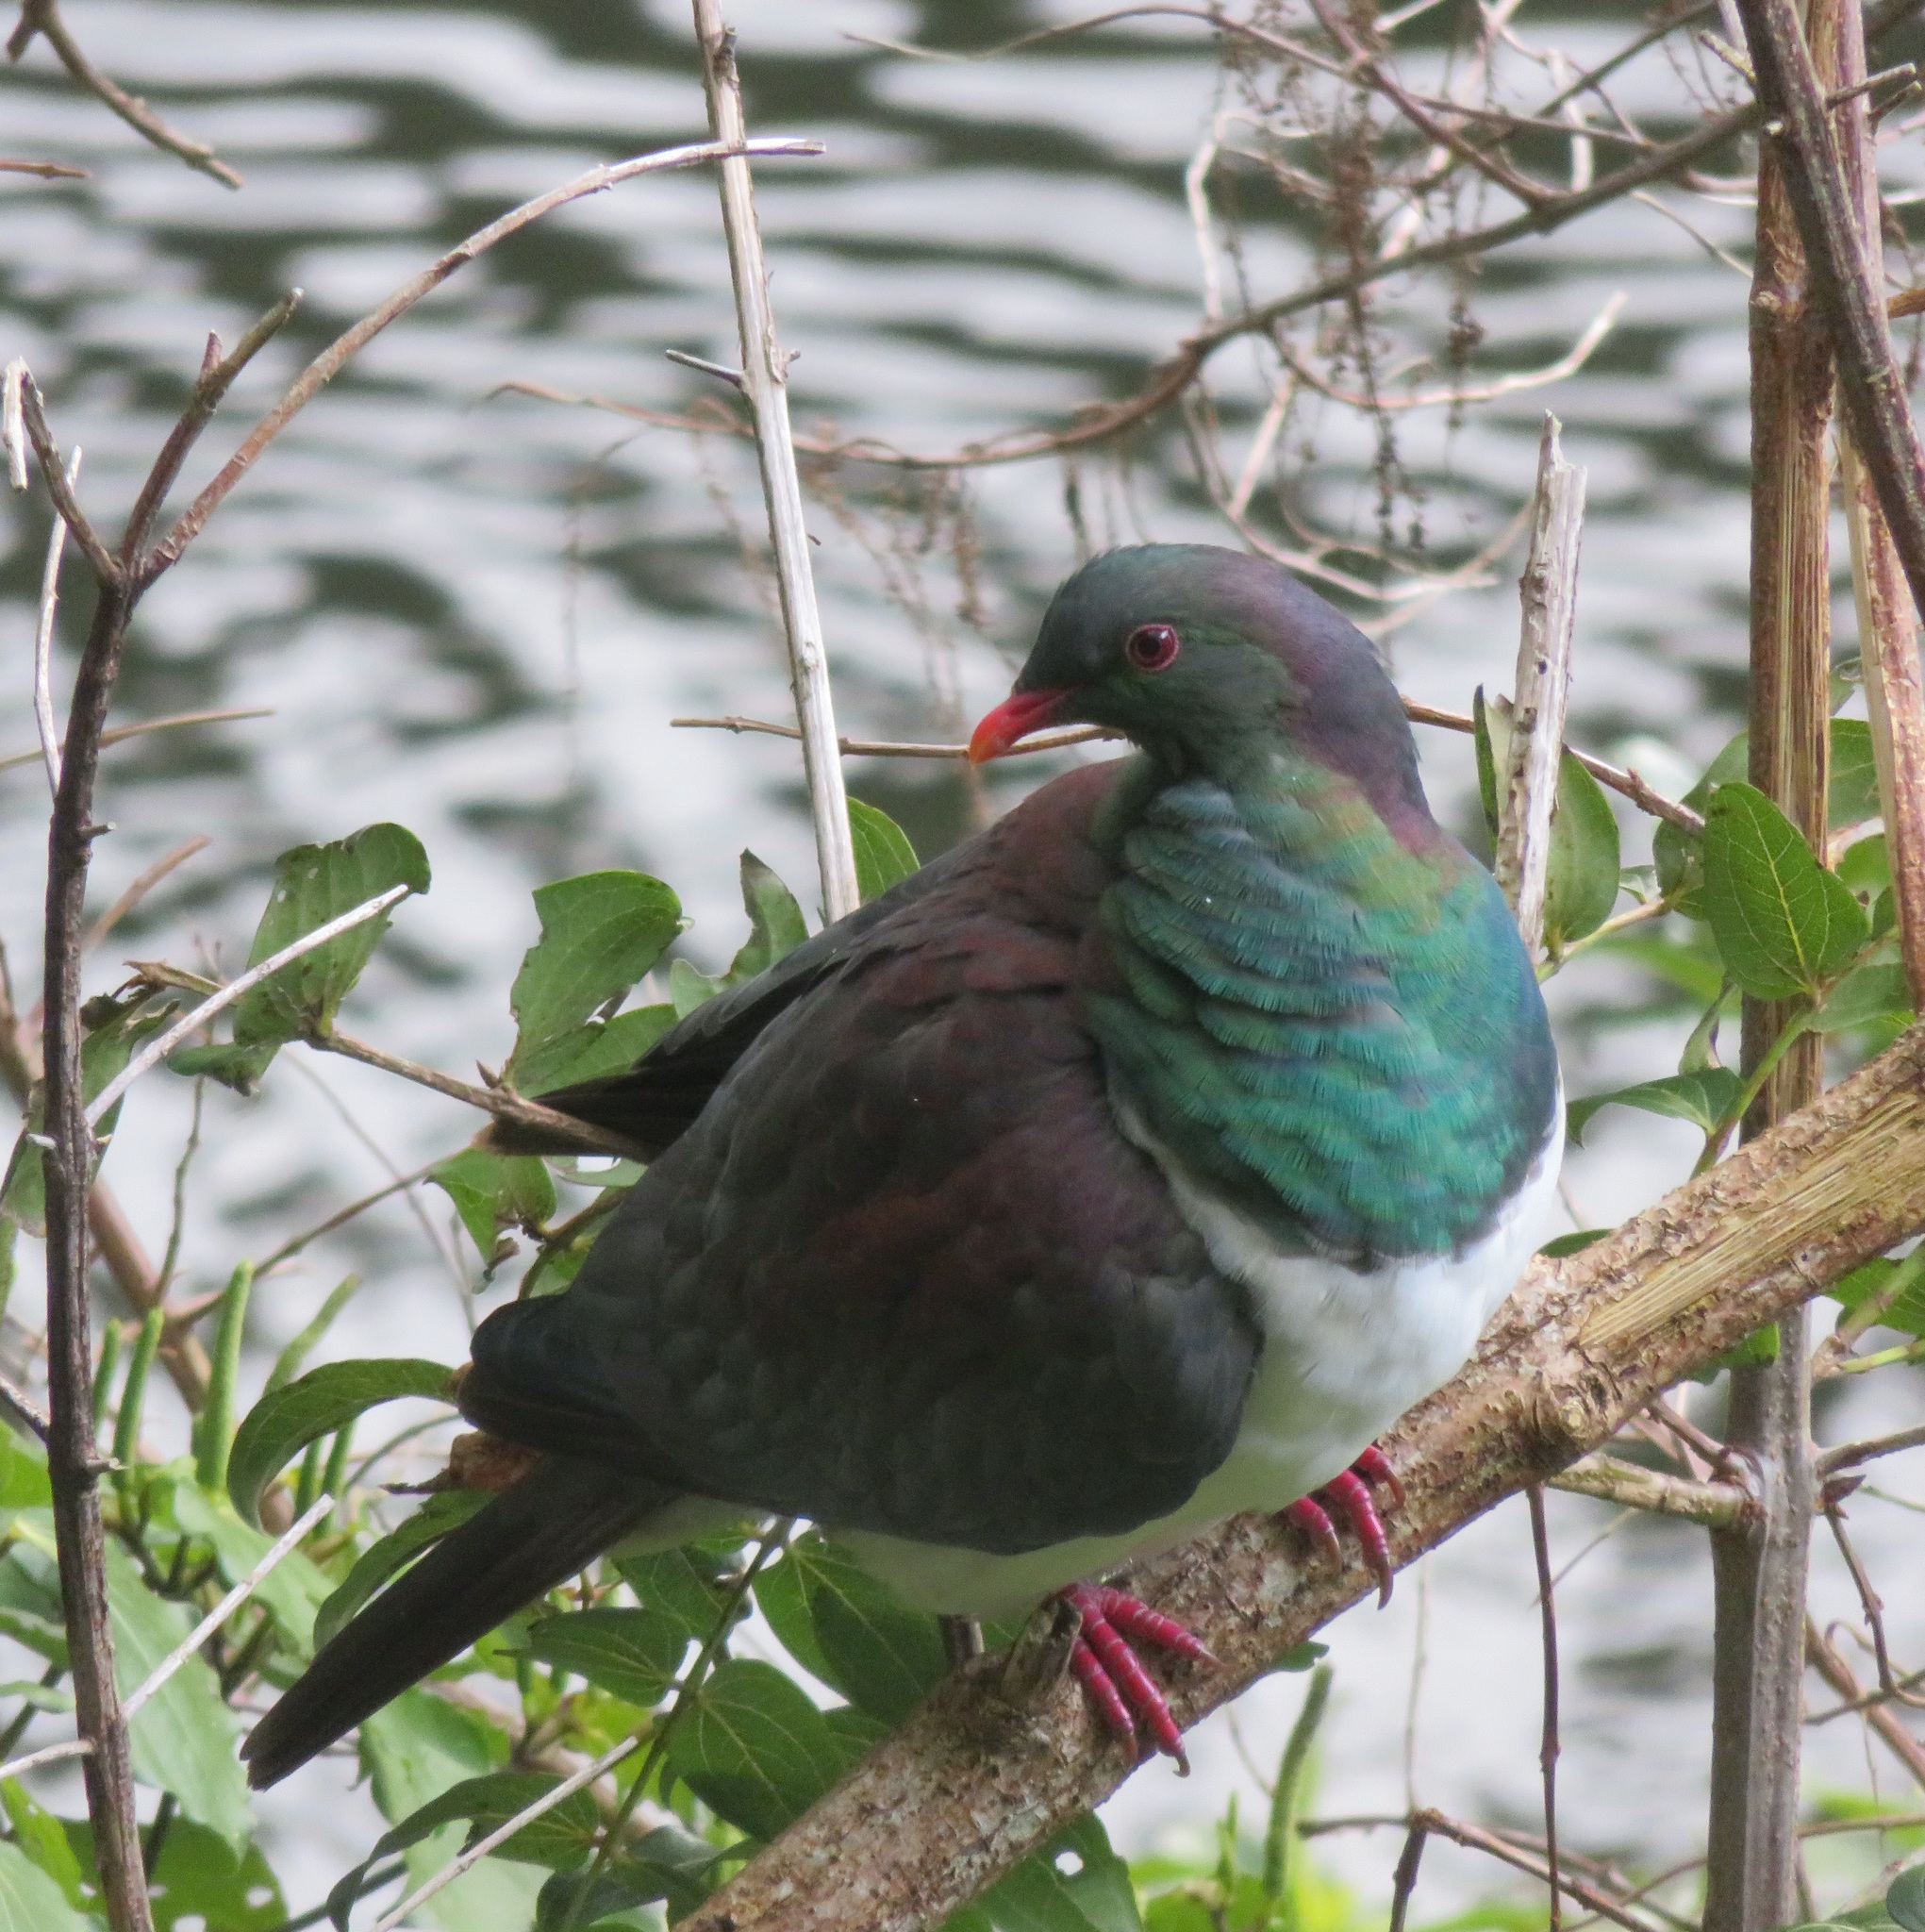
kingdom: Animalia
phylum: Chordata
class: Aves
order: Columbiformes
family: Columbidae
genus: Hemiphaga
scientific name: Hemiphaga novaeseelandiae
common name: New zealand pigeon
